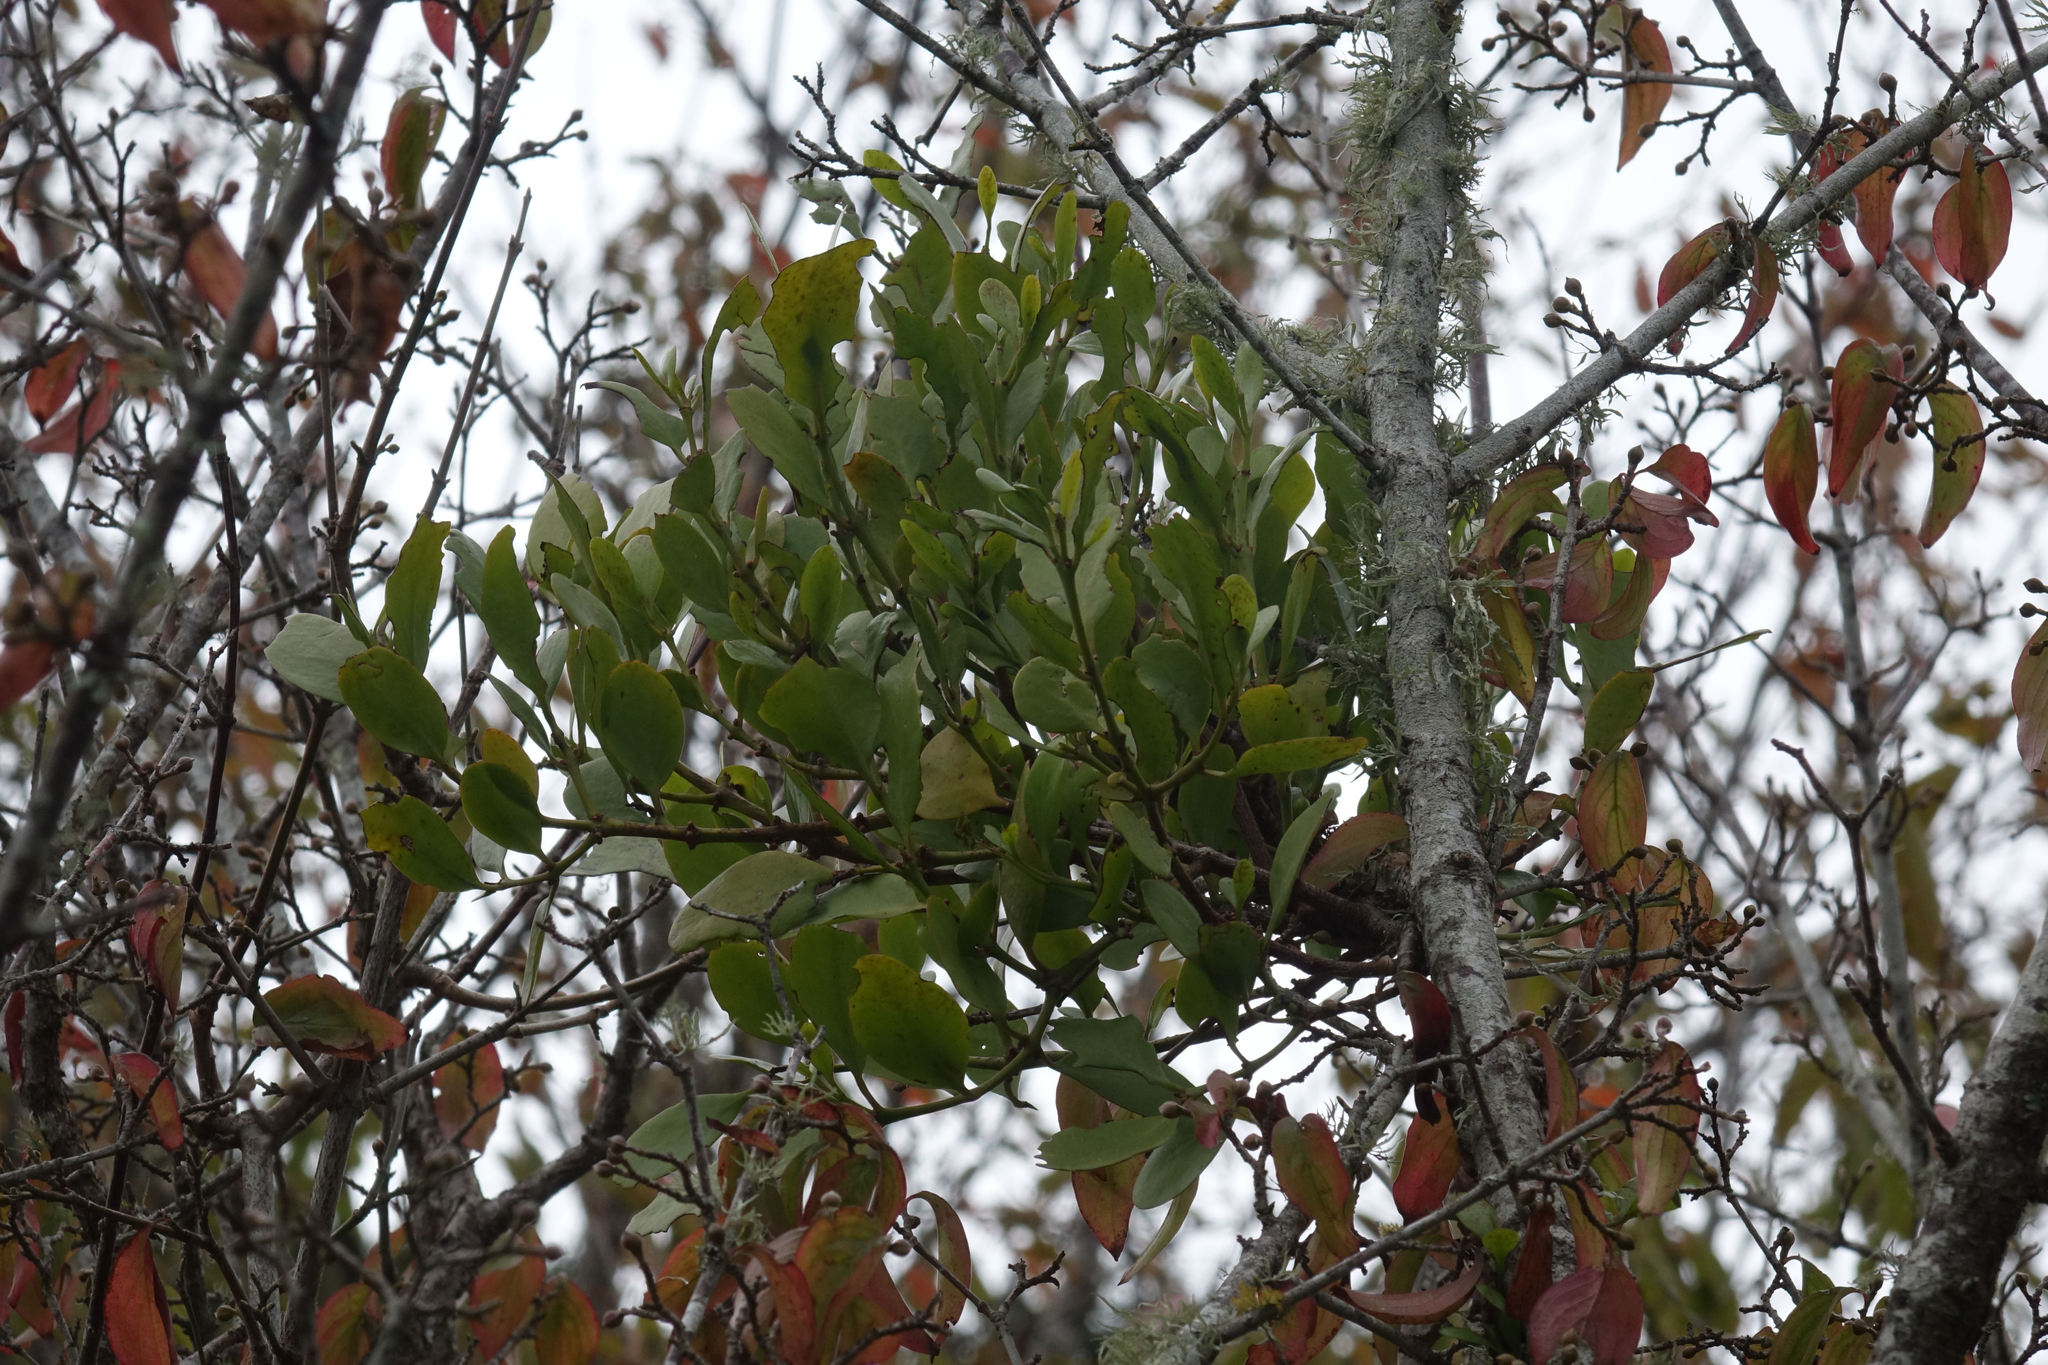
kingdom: Plantae
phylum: Tracheophyta
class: Magnoliopsida
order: Santalales
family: Loranthaceae
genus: Ileostylus
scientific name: Ileostylus micranthus
